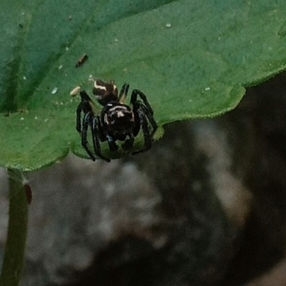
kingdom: Animalia
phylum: Arthropoda
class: Arachnida
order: Araneae
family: Salticidae
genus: Colonus
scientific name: Colonus sylvanus
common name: Jumping spiders
